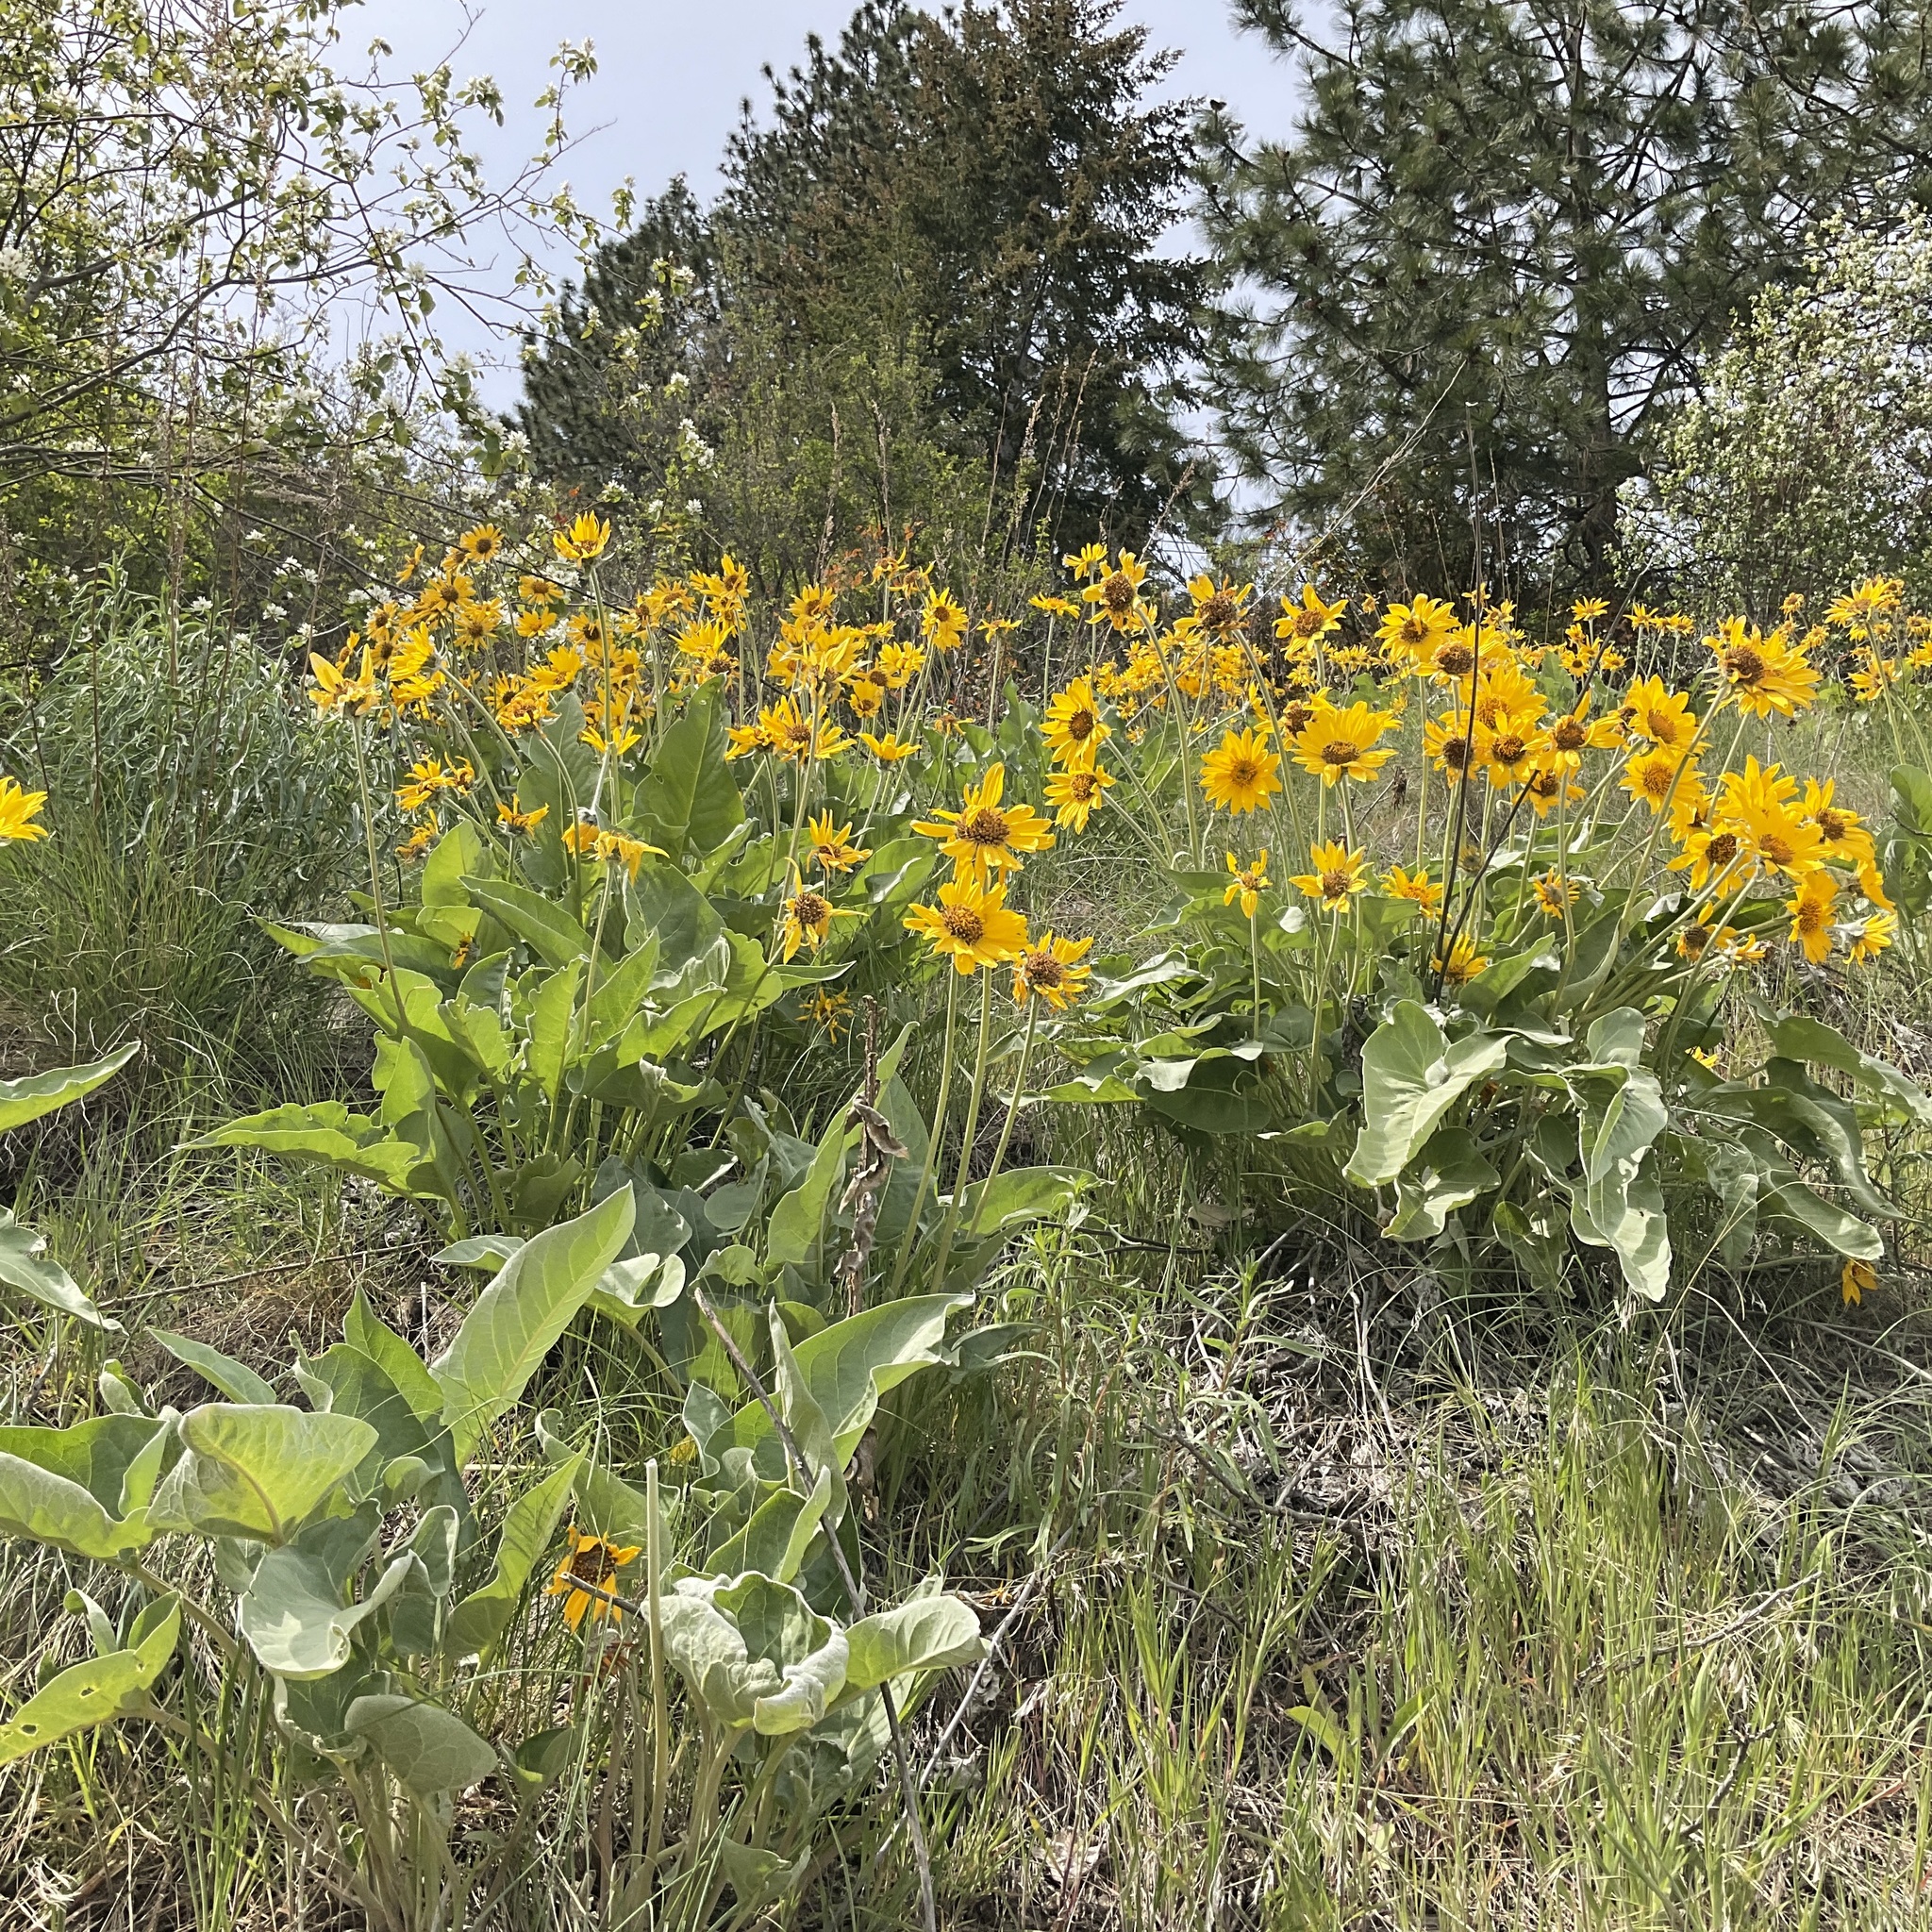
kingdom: Plantae
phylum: Tracheophyta
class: Magnoliopsida
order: Asterales
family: Asteraceae
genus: Wyethia
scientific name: Wyethia sagittata
